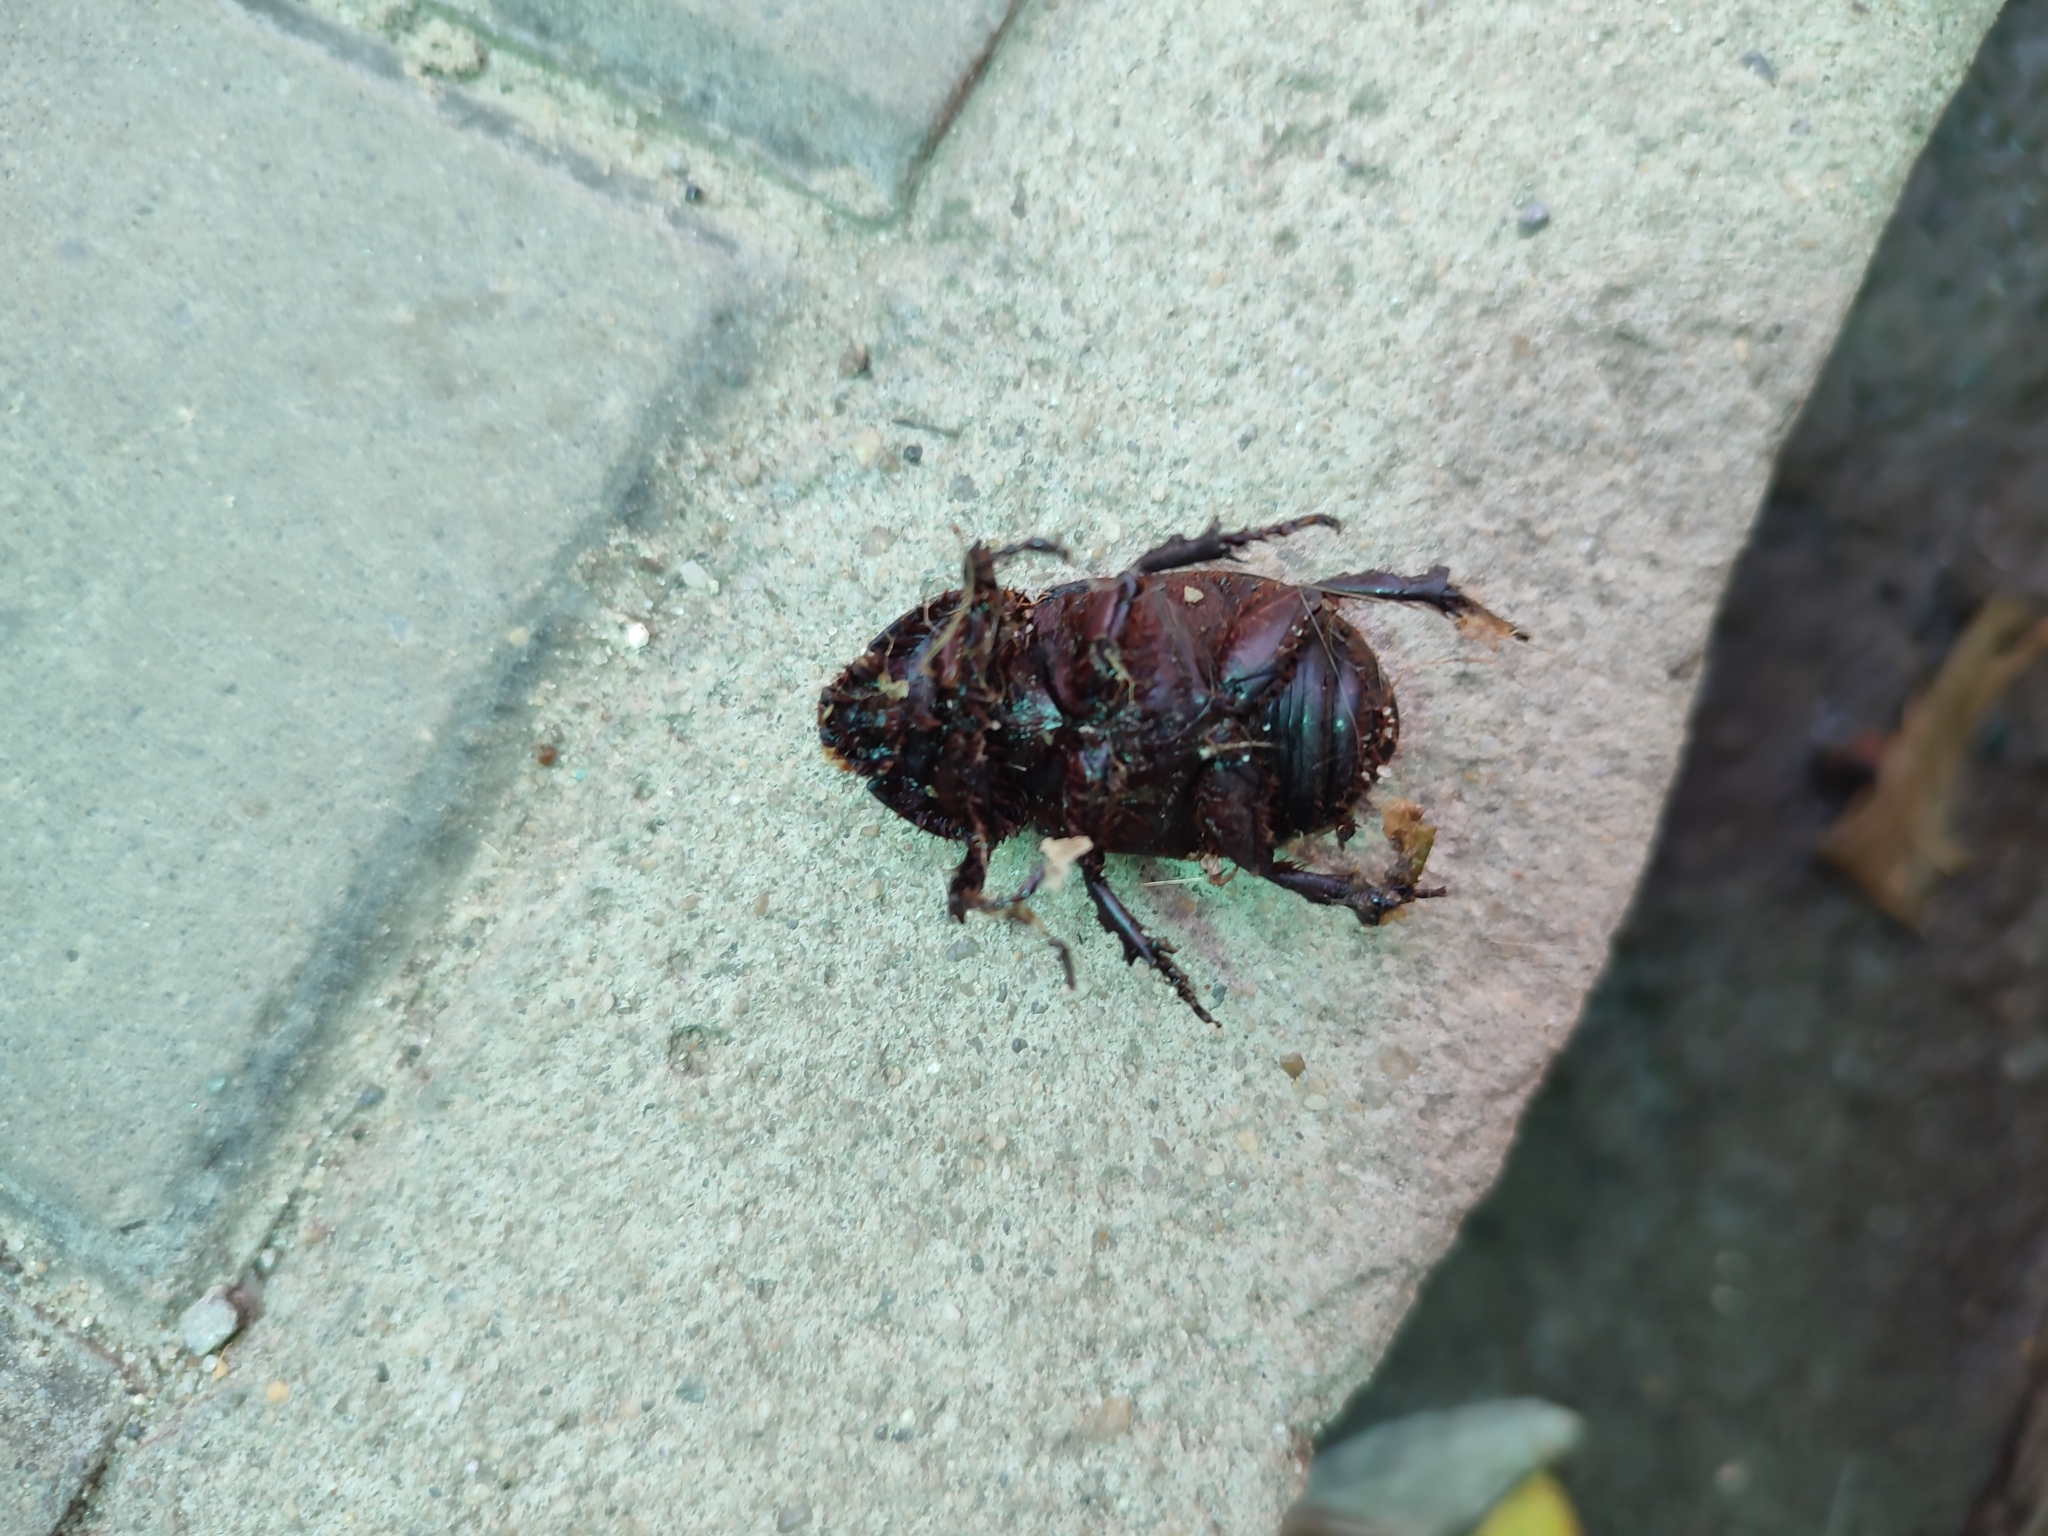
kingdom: Animalia
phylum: Arthropoda
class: Insecta
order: Coleoptera
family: Scarabaeidae
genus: Oryctes
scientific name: Oryctes nasicornis
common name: European rhinoceros beetle
